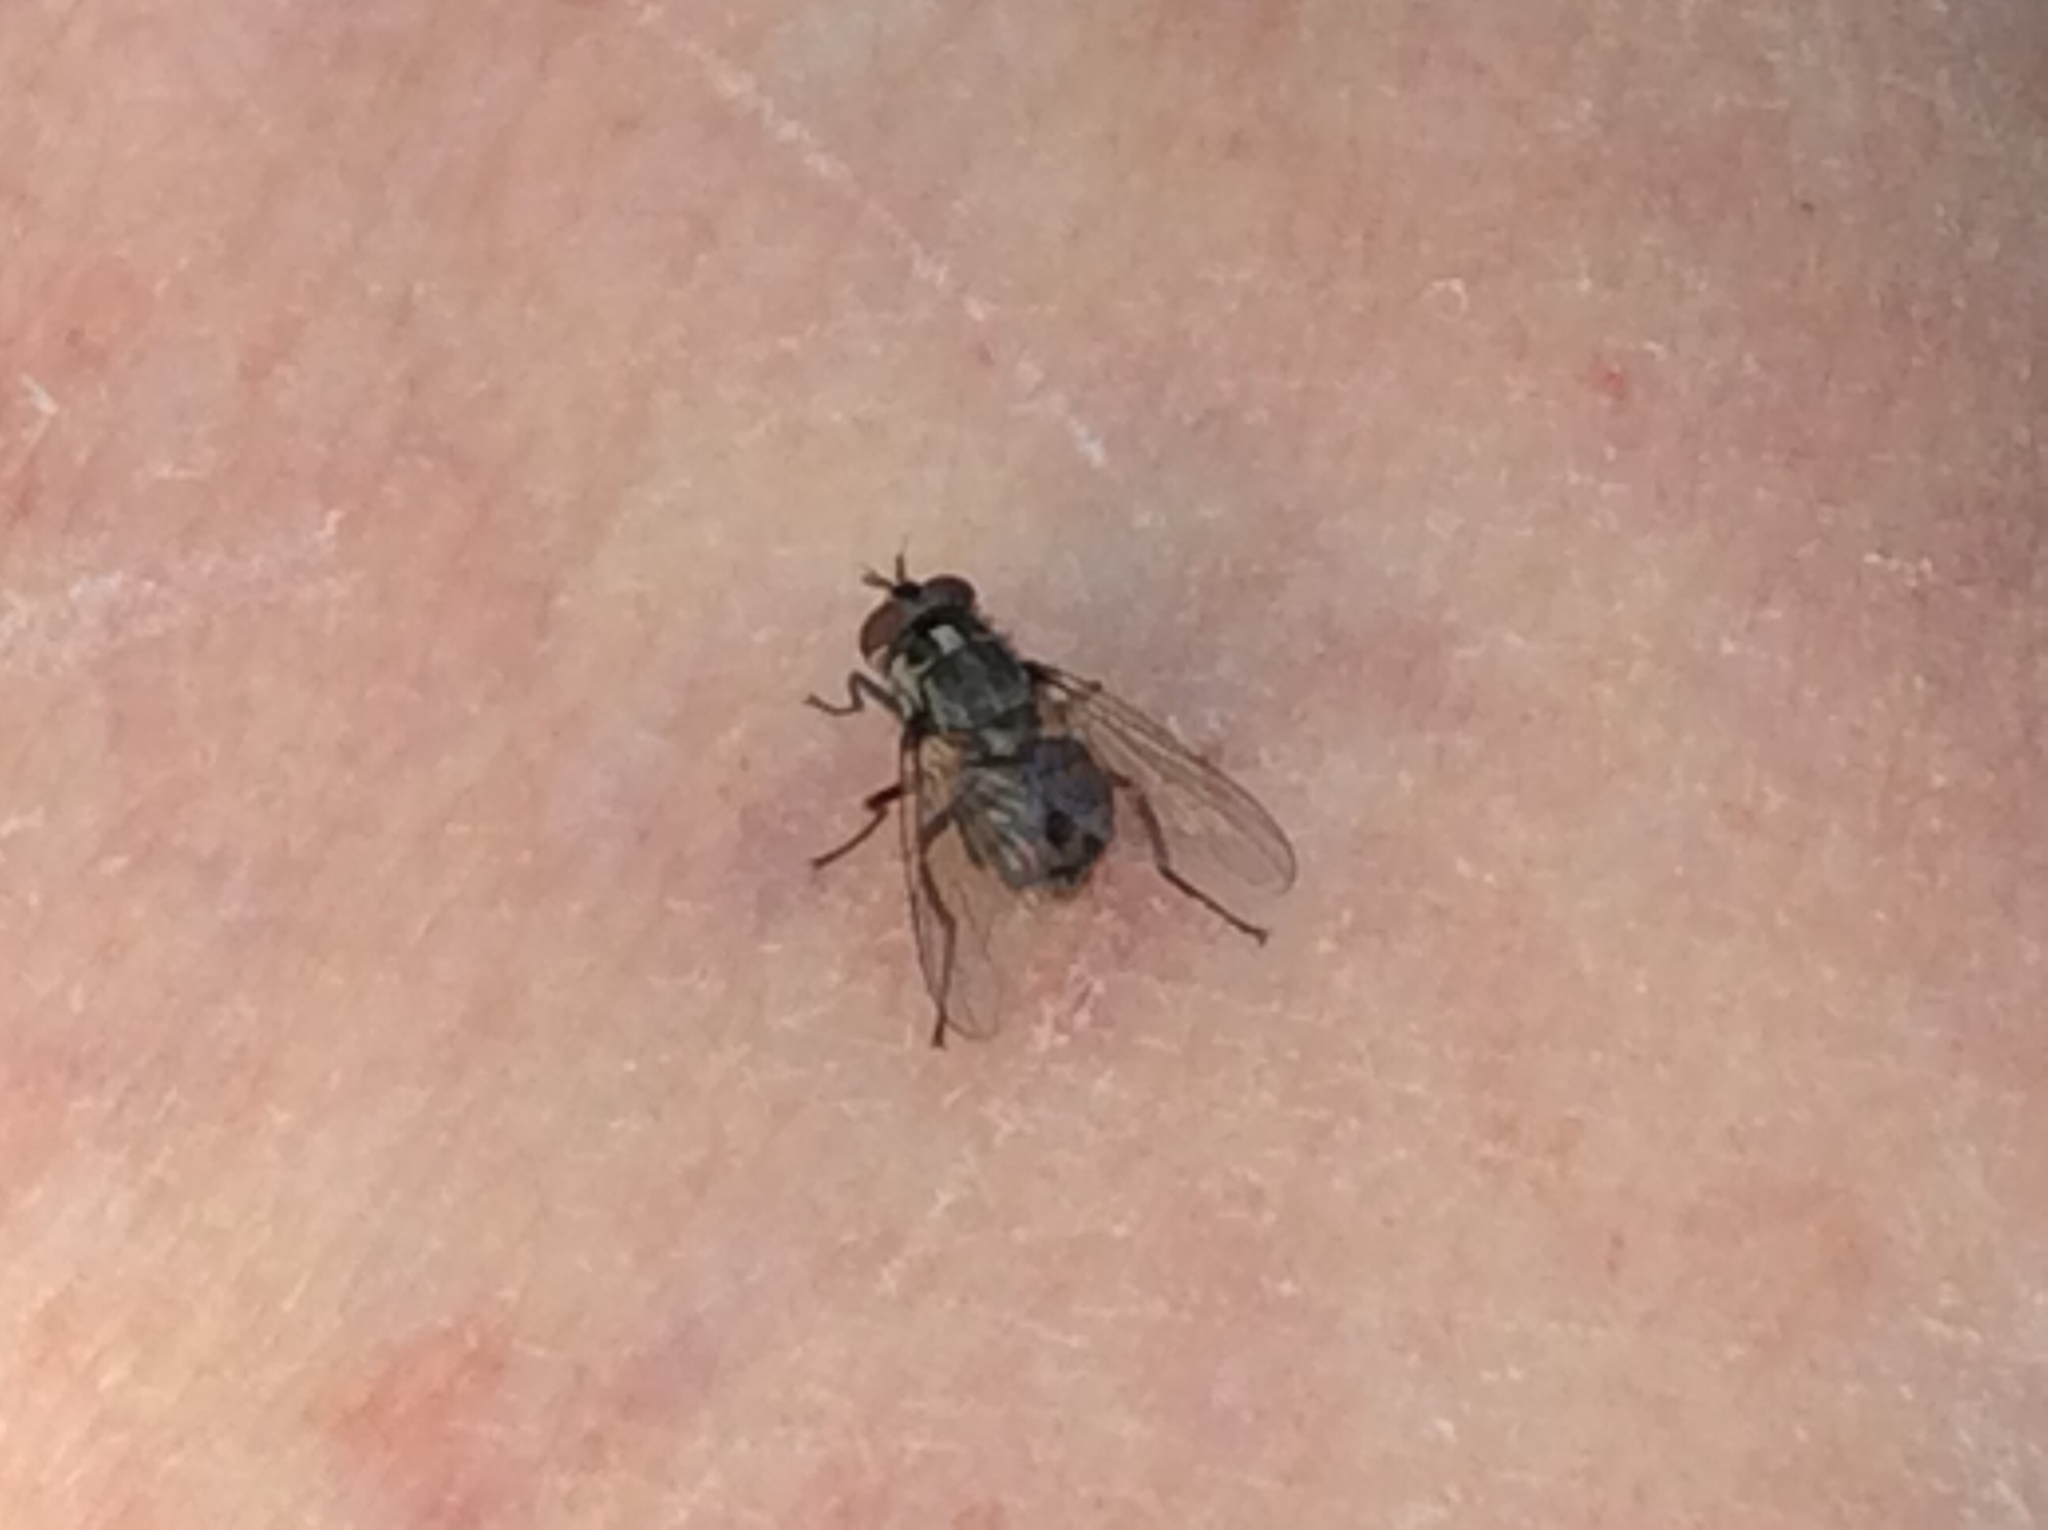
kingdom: Animalia
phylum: Arthropoda
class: Insecta
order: Diptera
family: Muscidae
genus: Stomoxys
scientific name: Stomoxys calcitrans
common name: Stable fly
